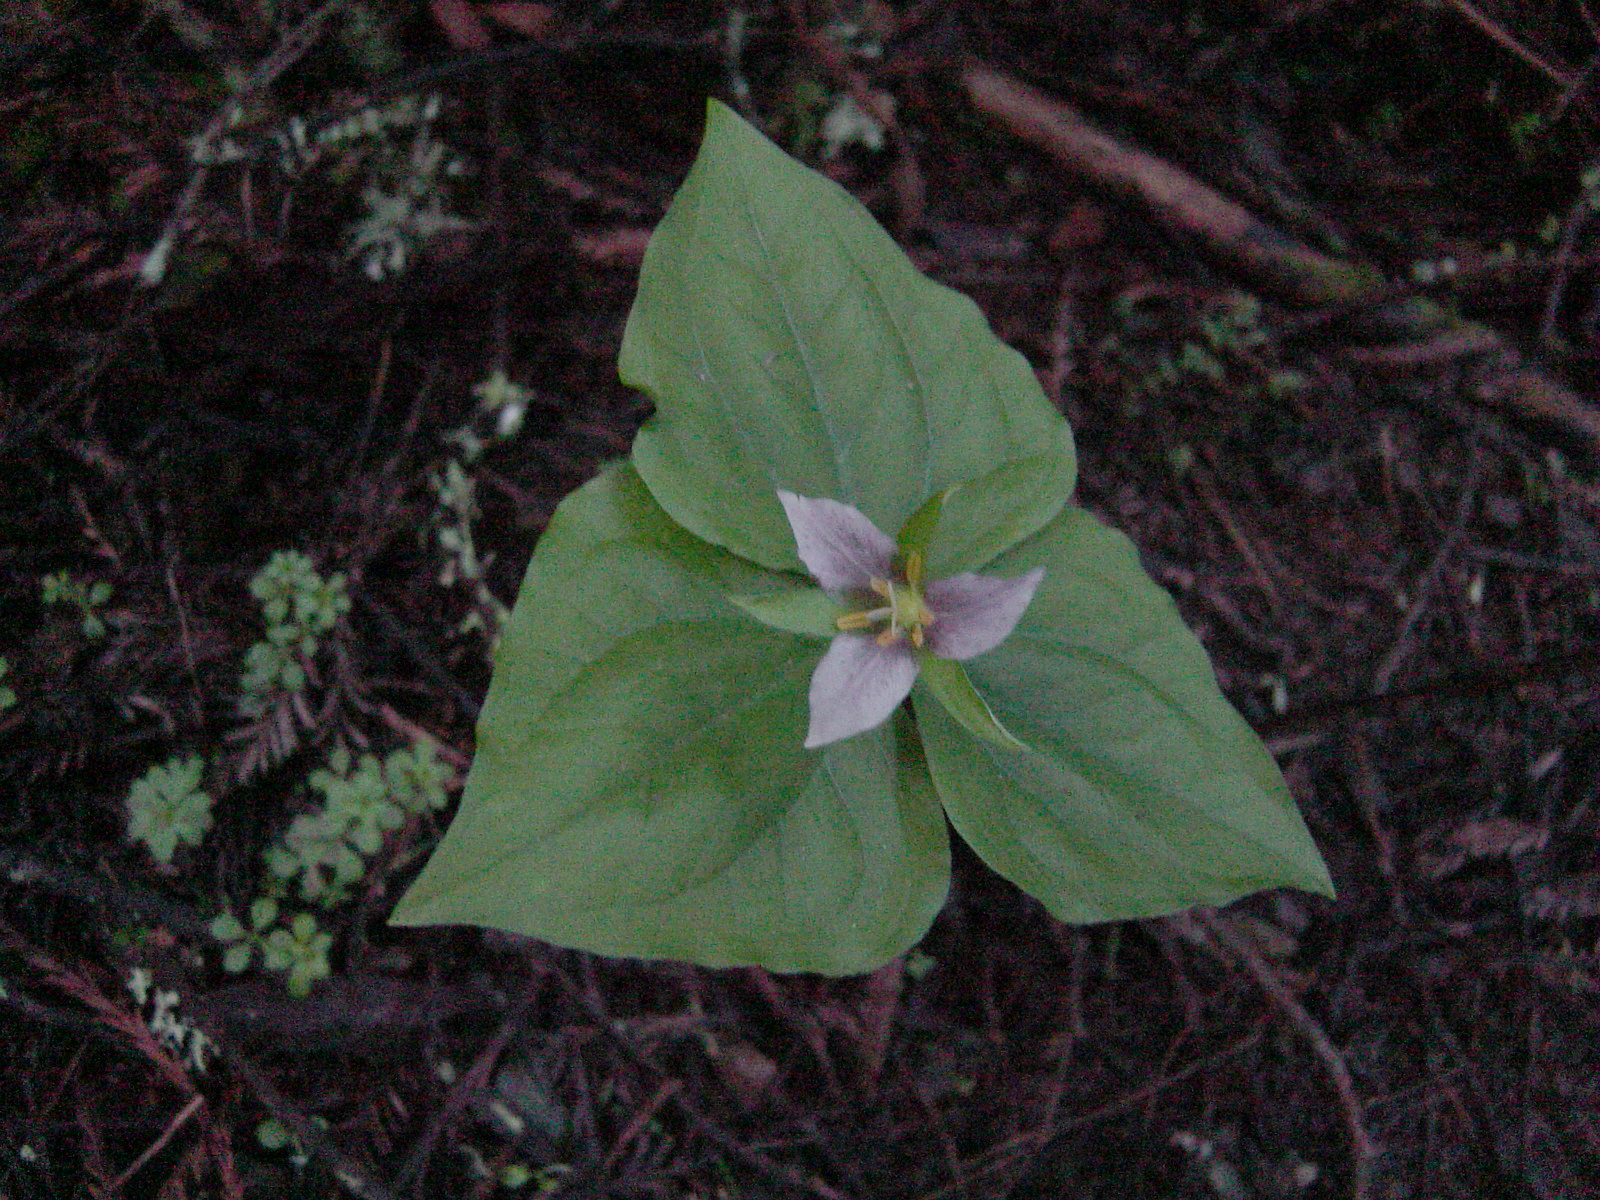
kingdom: Plantae
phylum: Tracheophyta
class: Liliopsida
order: Liliales
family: Melanthiaceae
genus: Trillium
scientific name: Trillium ovatum
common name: Pacific trillium
